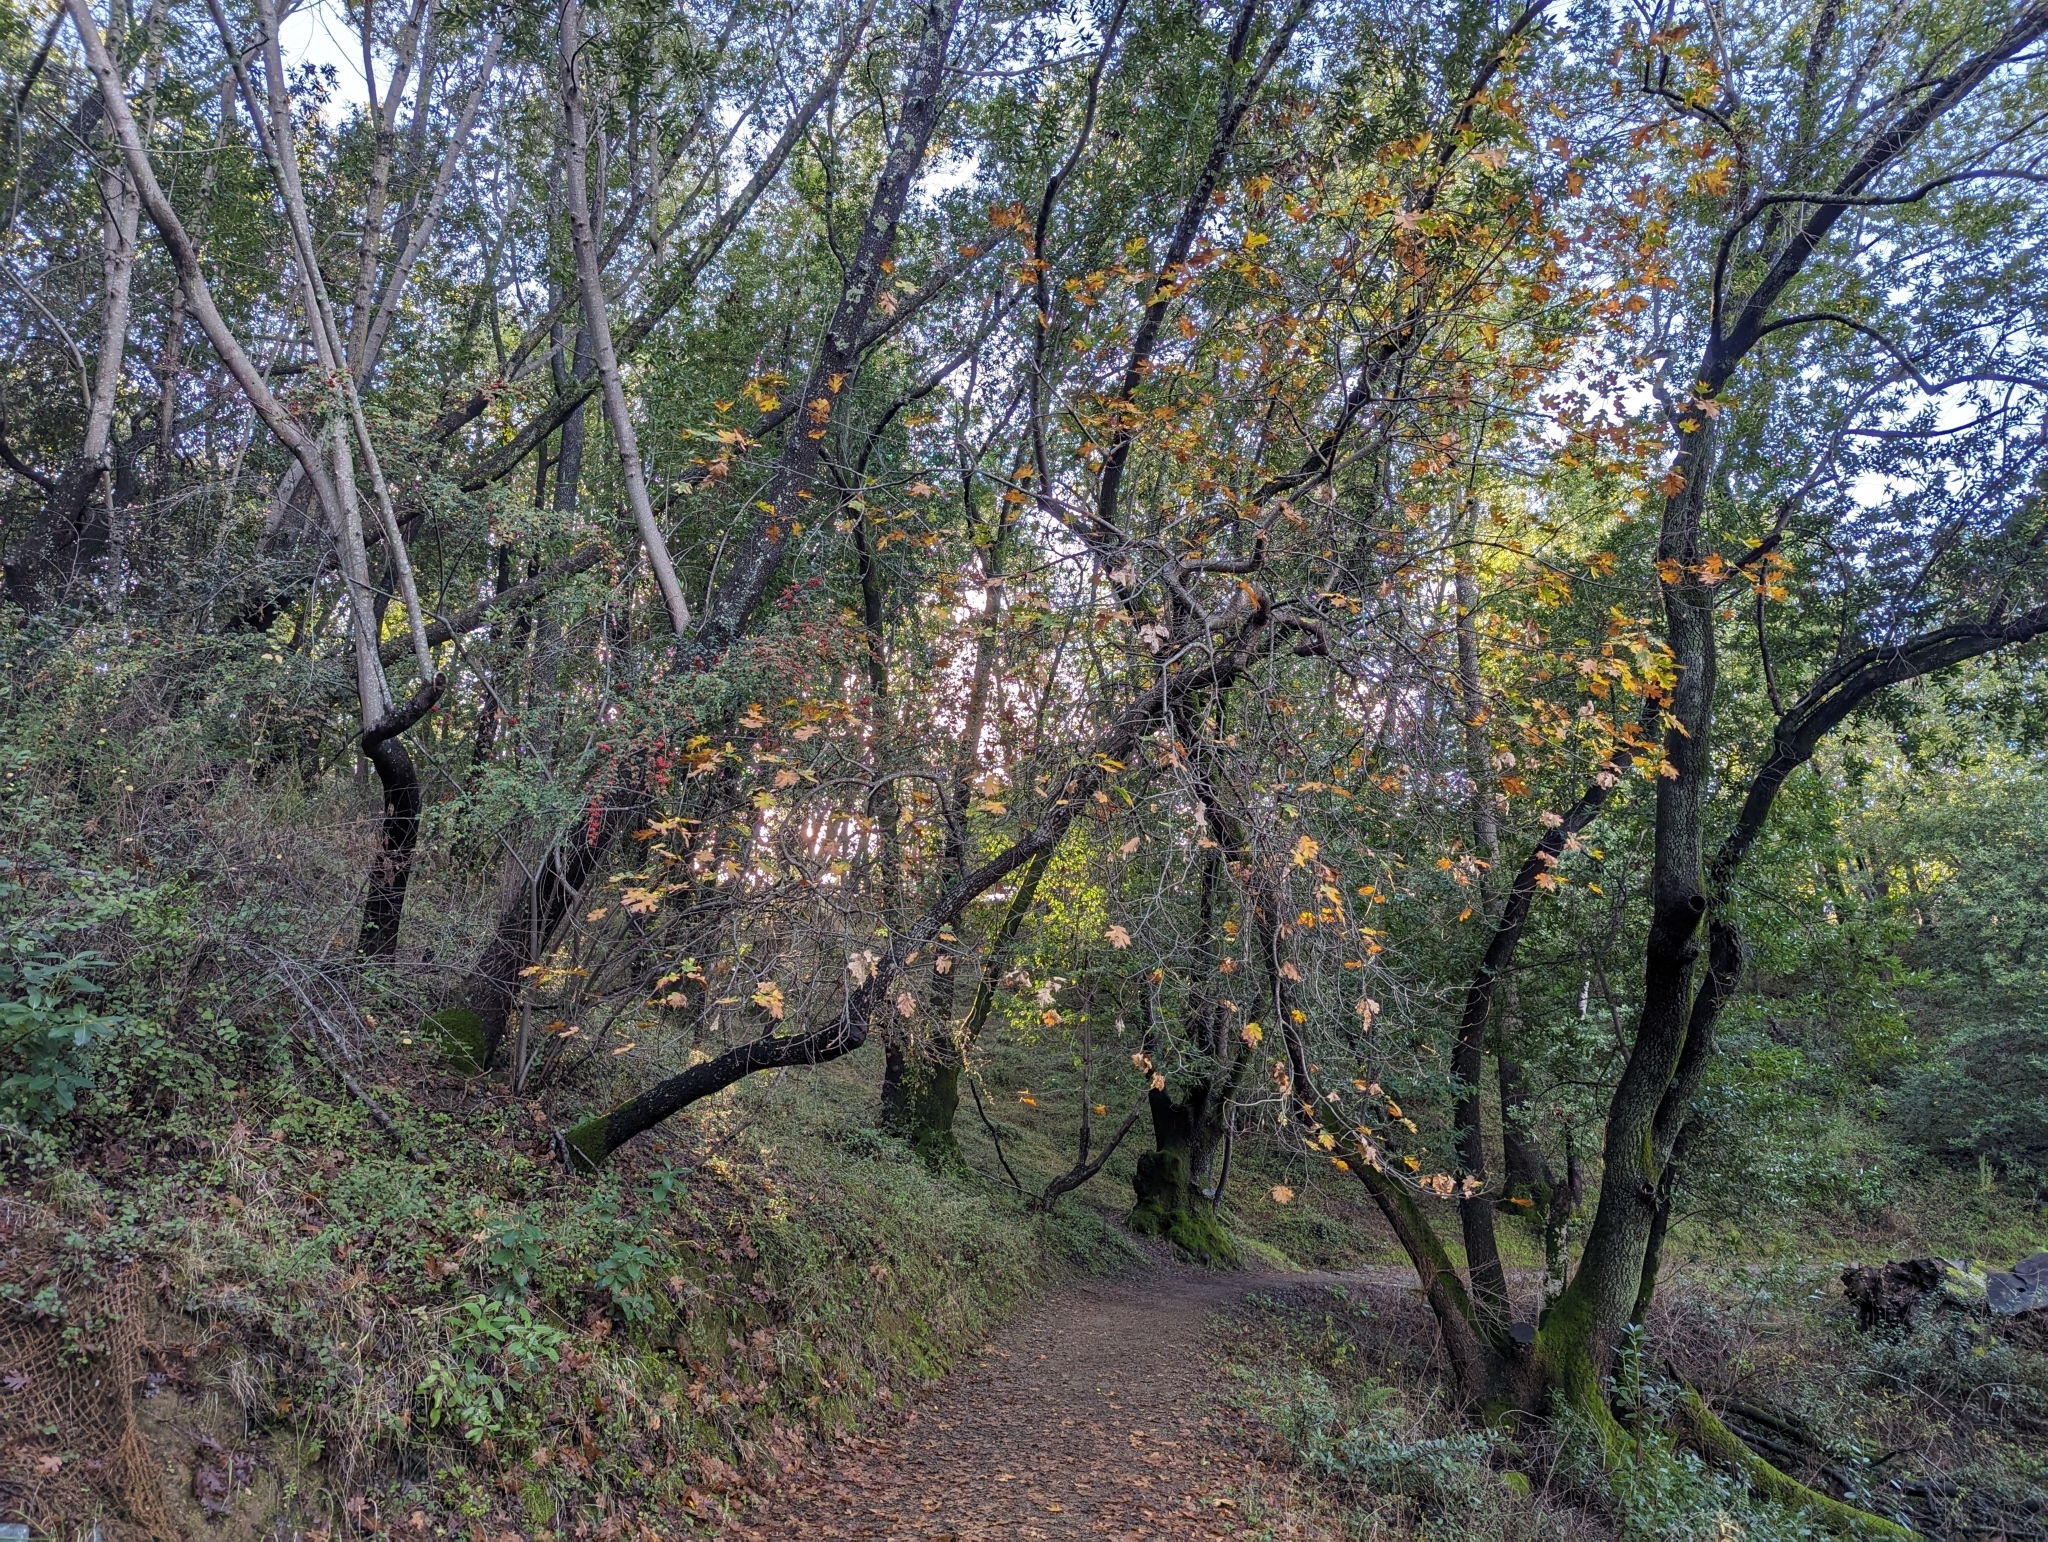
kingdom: Plantae
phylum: Tracheophyta
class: Magnoliopsida
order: Fagales
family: Fagaceae
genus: Quercus
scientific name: Quercus kelloggii
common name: California black oak
